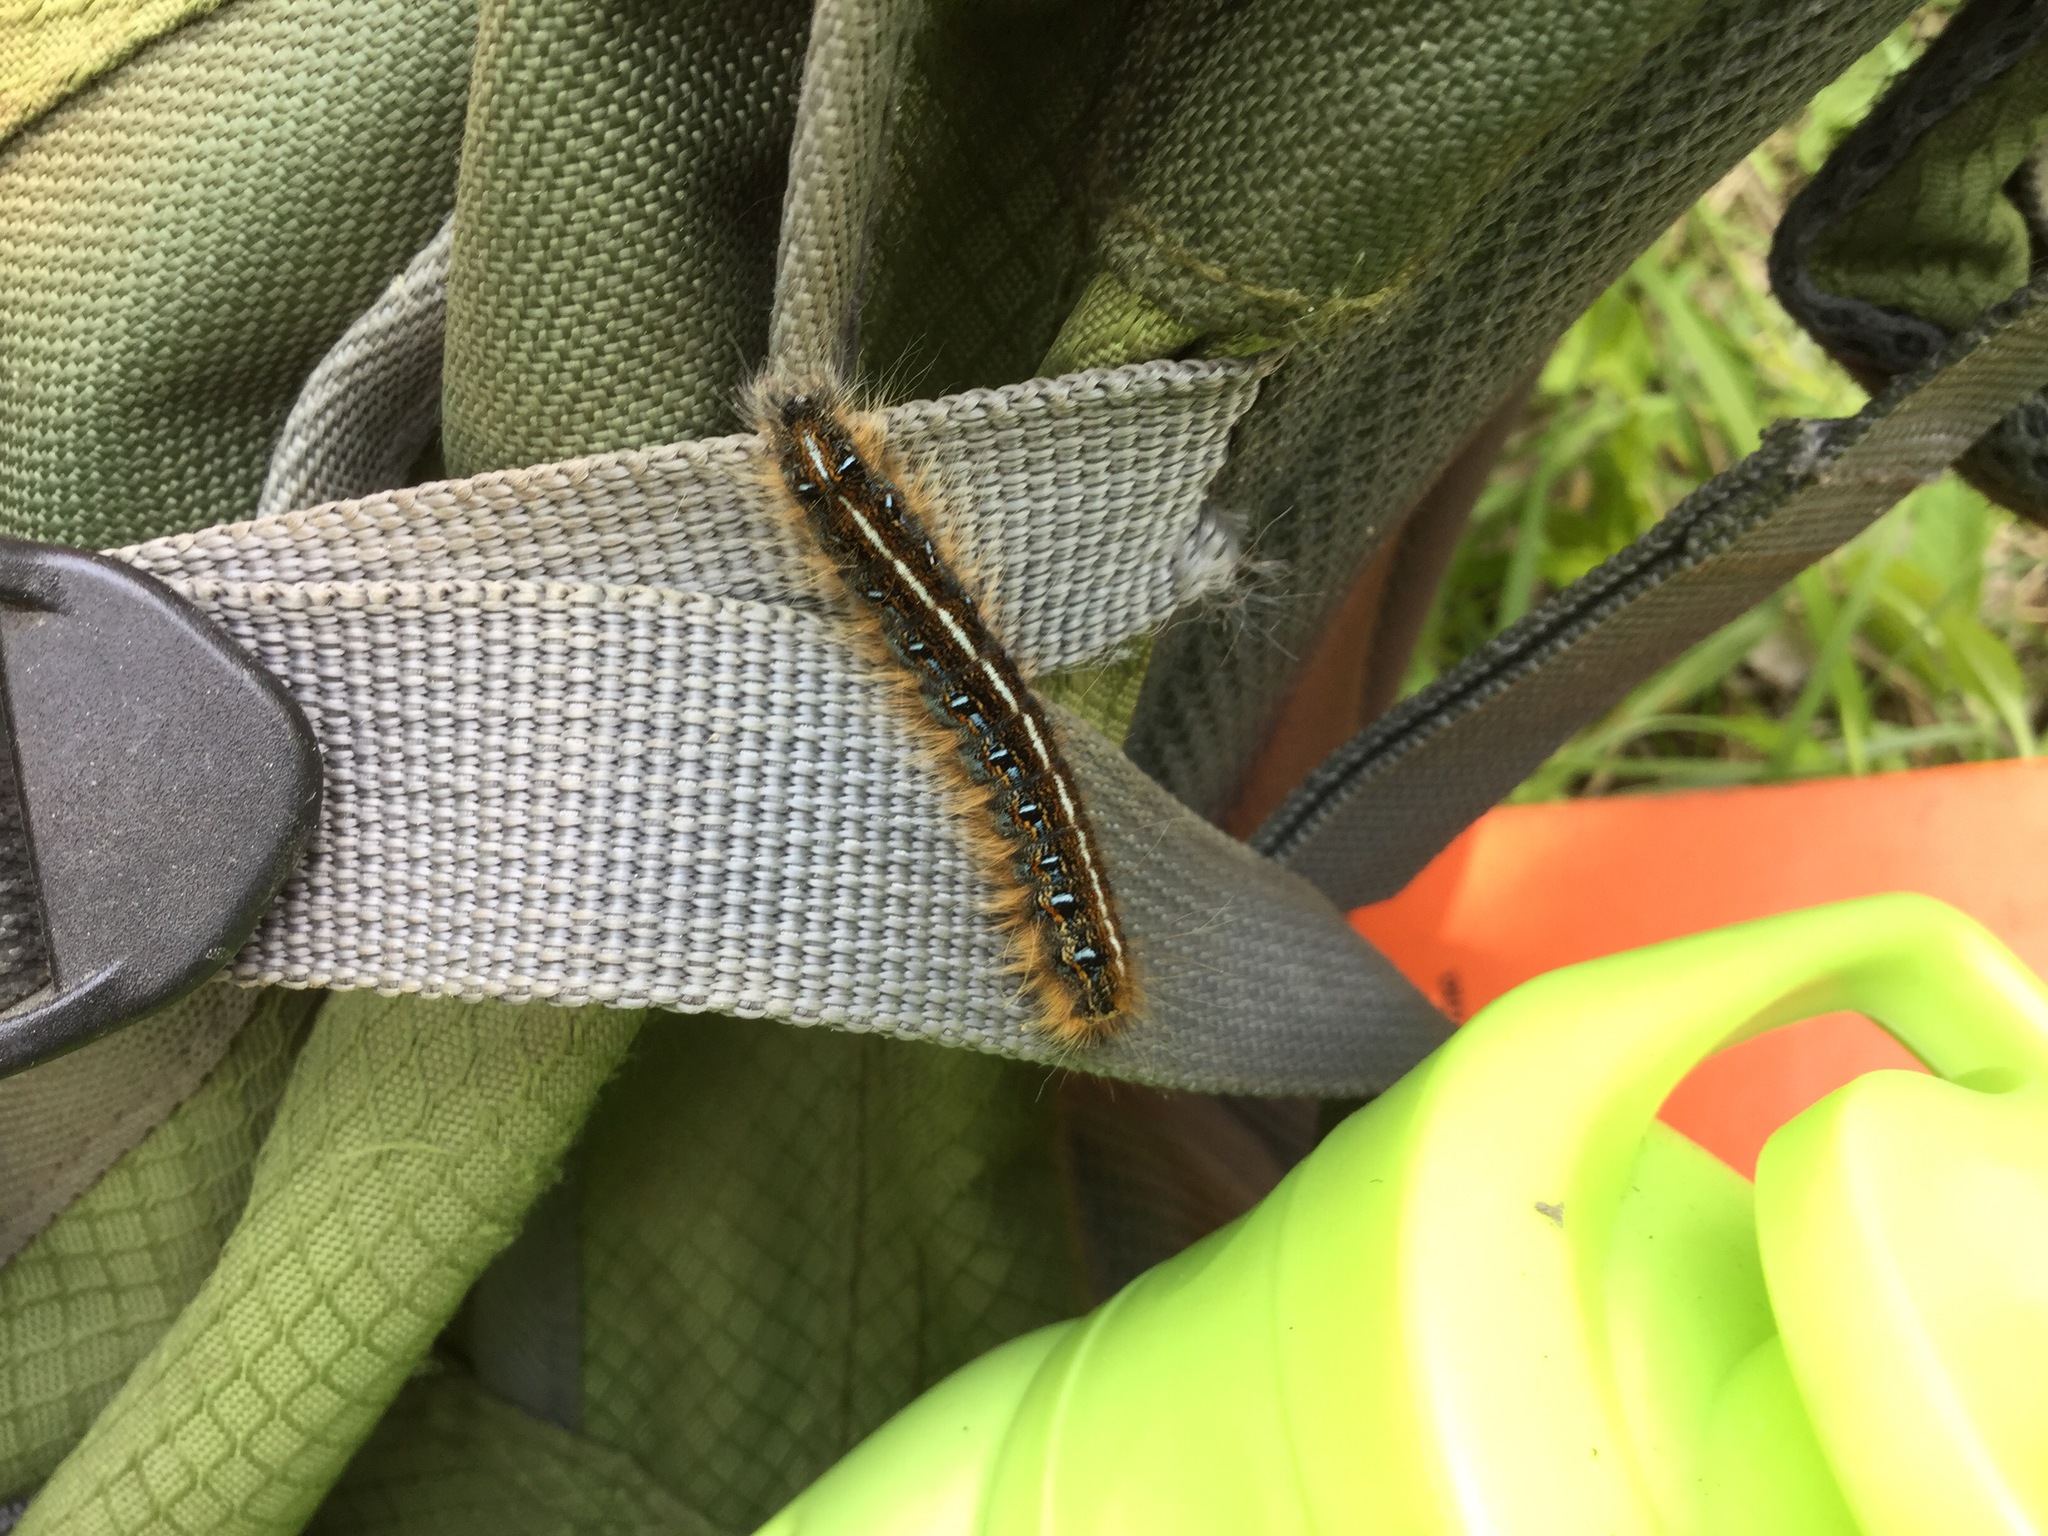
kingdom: Animalia
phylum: Arthropoda
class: Insecta
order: Lepidoptera
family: Lasiocampidae
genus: Malacosoma
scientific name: Malacosoma americana
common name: Eastern tent caterpillar moth
